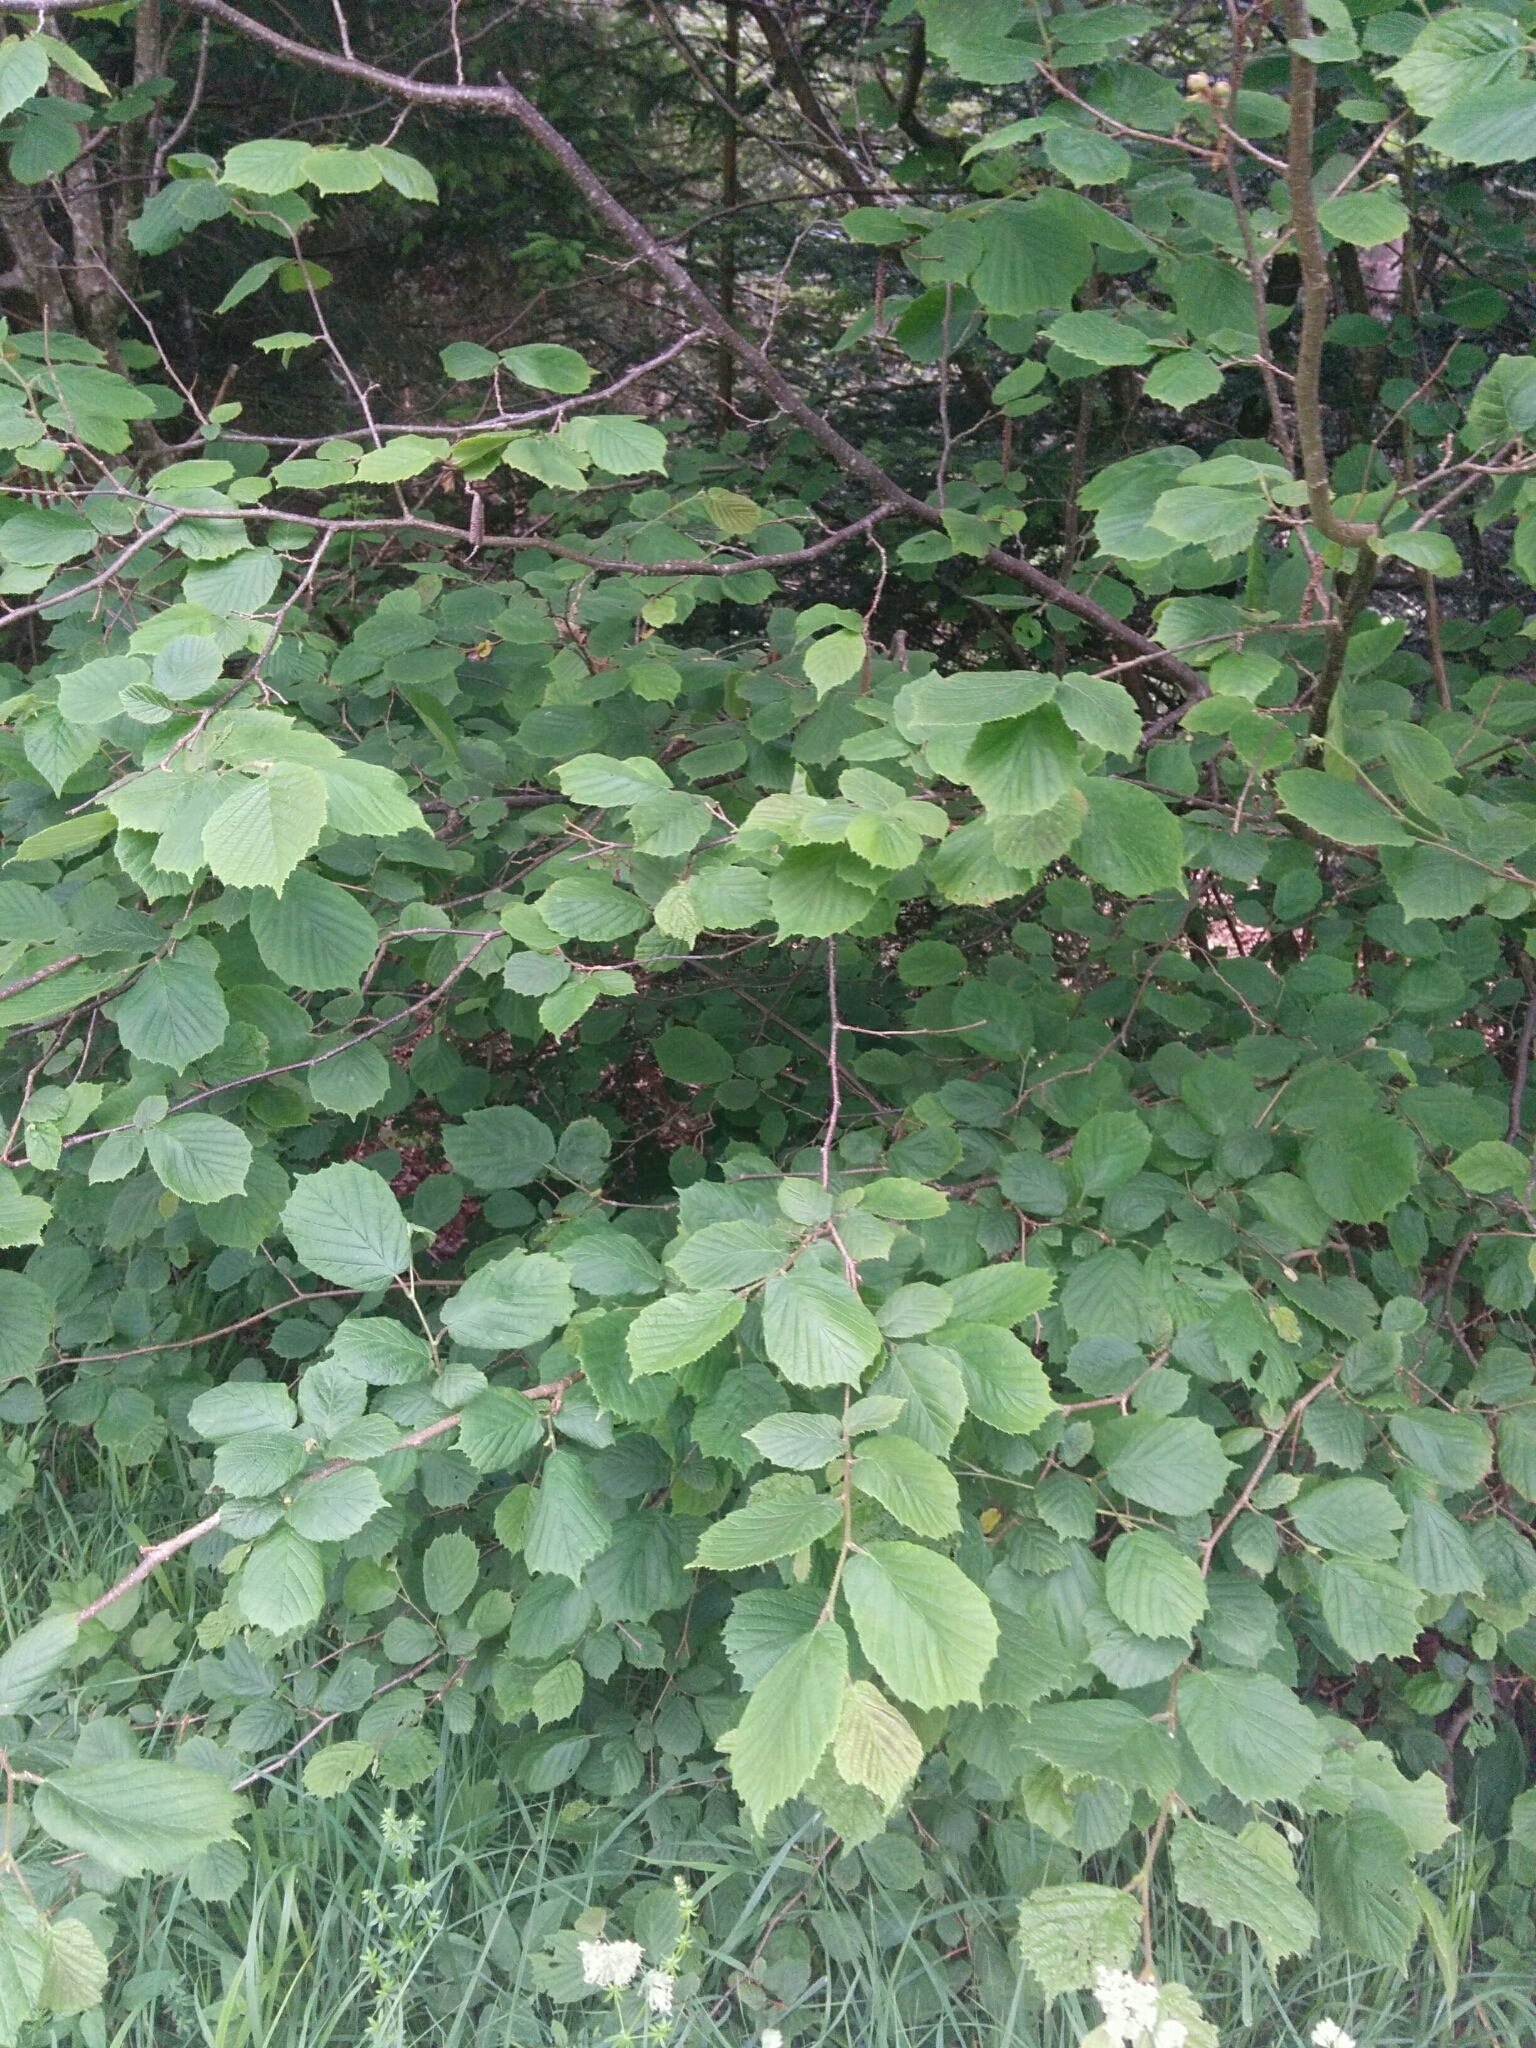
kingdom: Plantae
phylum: Tracheophyta
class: Magnoliopsida
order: Fagales
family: Betulaceae
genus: Corylus
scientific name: Corylus avellana
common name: European hazel
